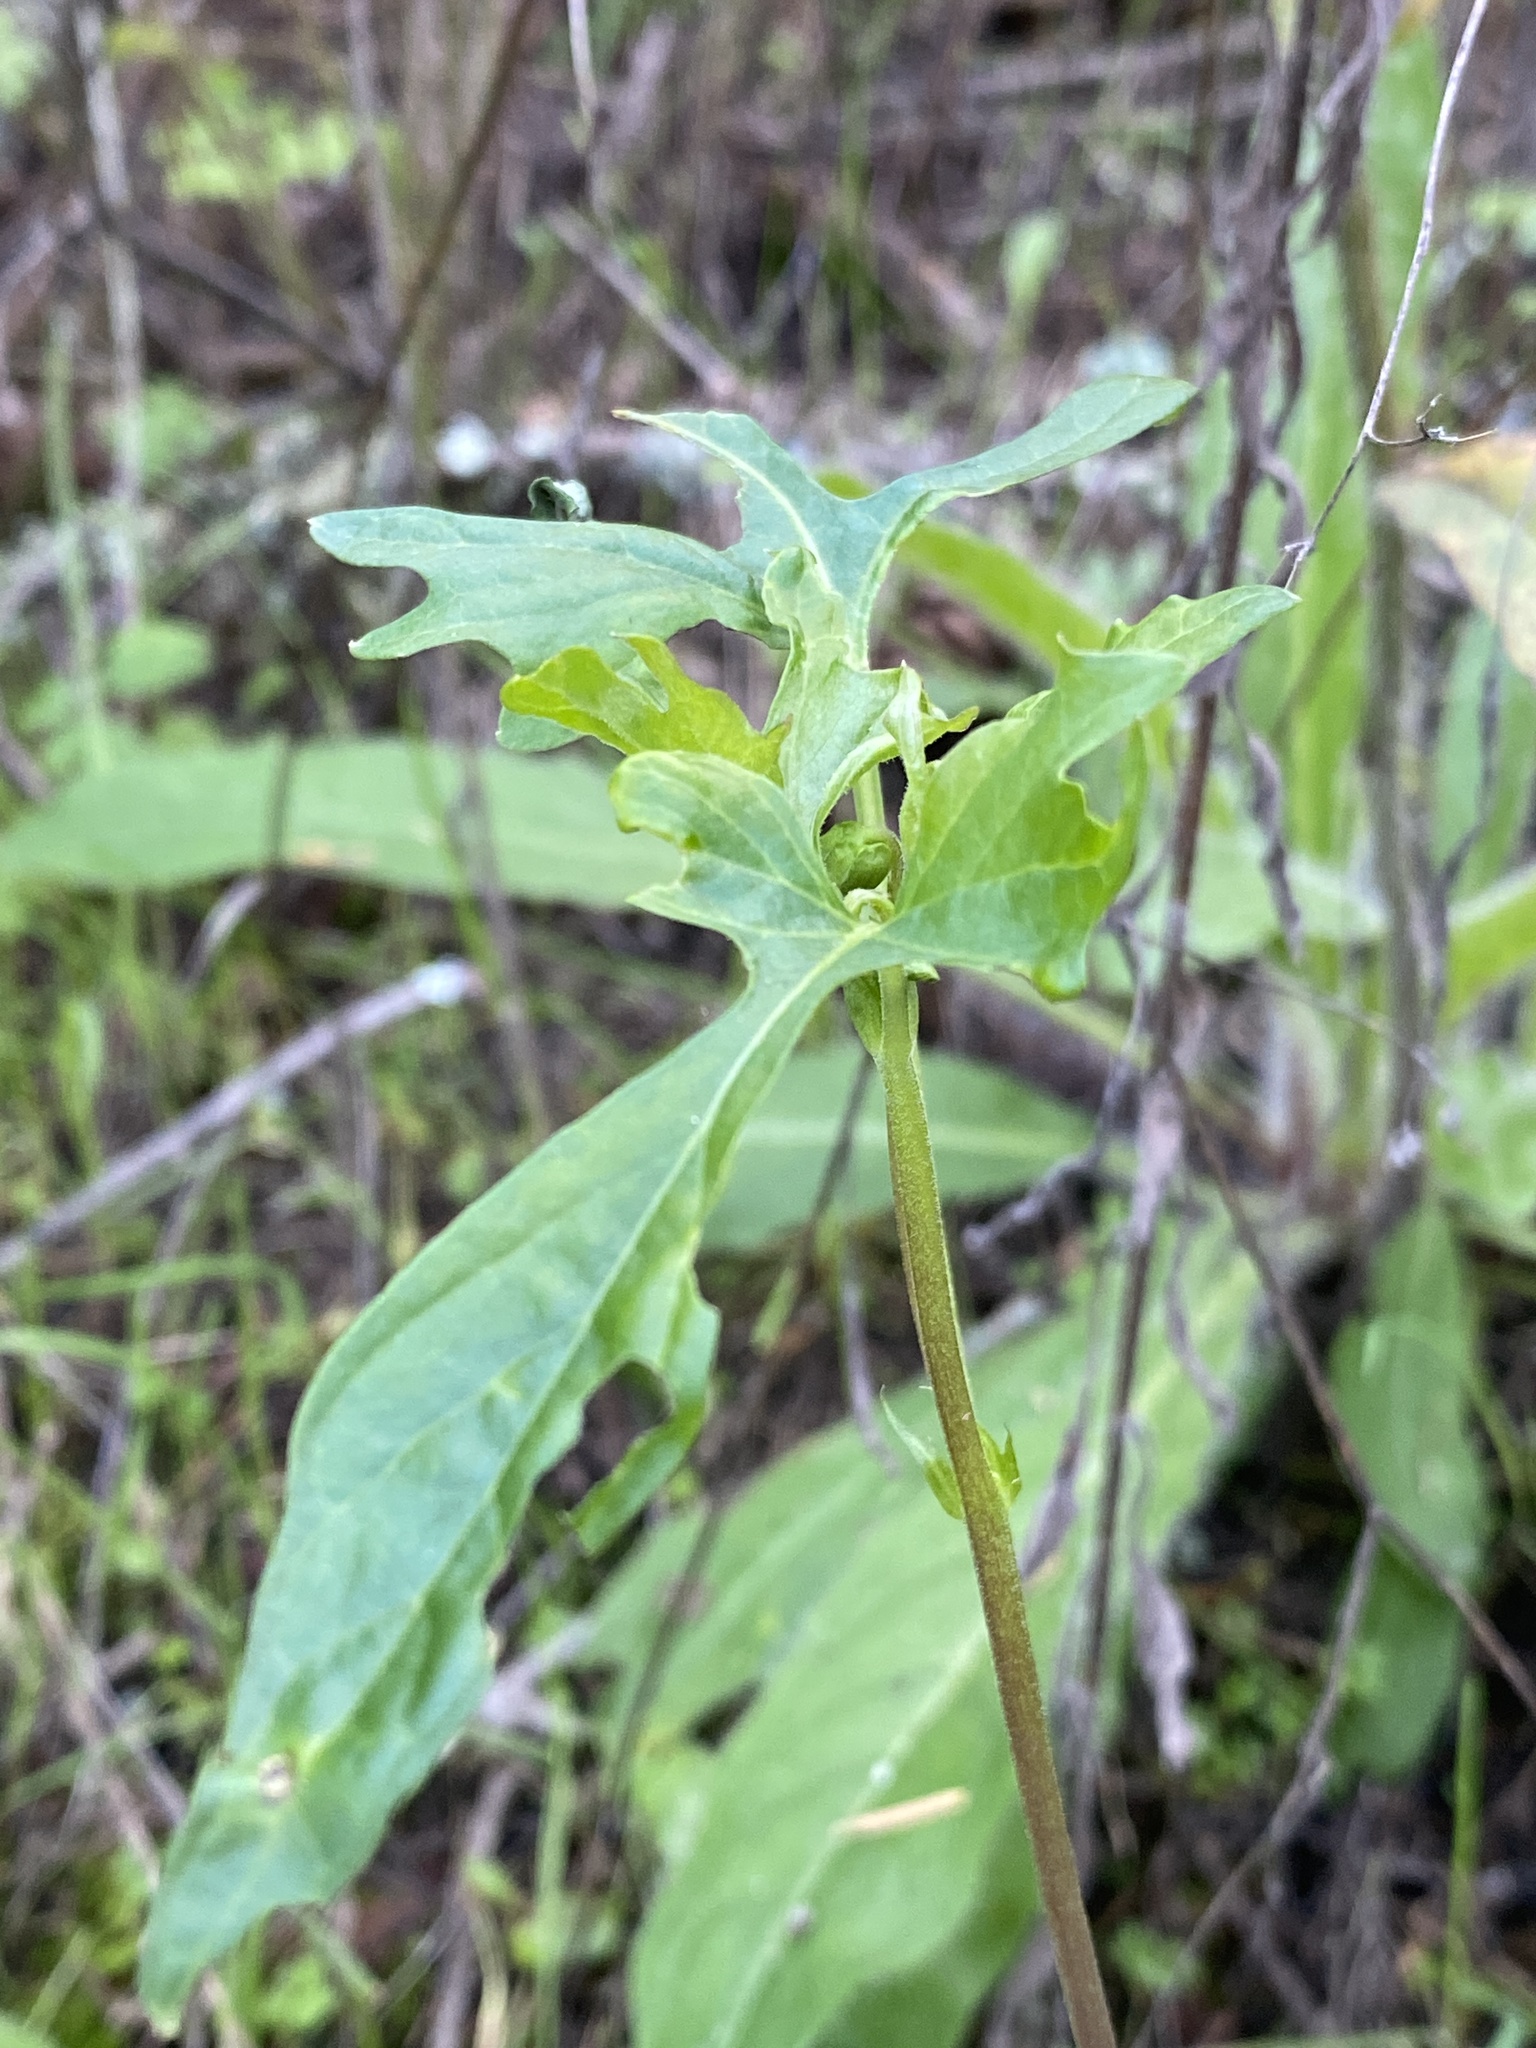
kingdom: Plantae
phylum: Tracheophyta
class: Magnoliopsida
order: Malpighiales
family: Violaceae
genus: Viola
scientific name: Viola lobata
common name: Pine violet
